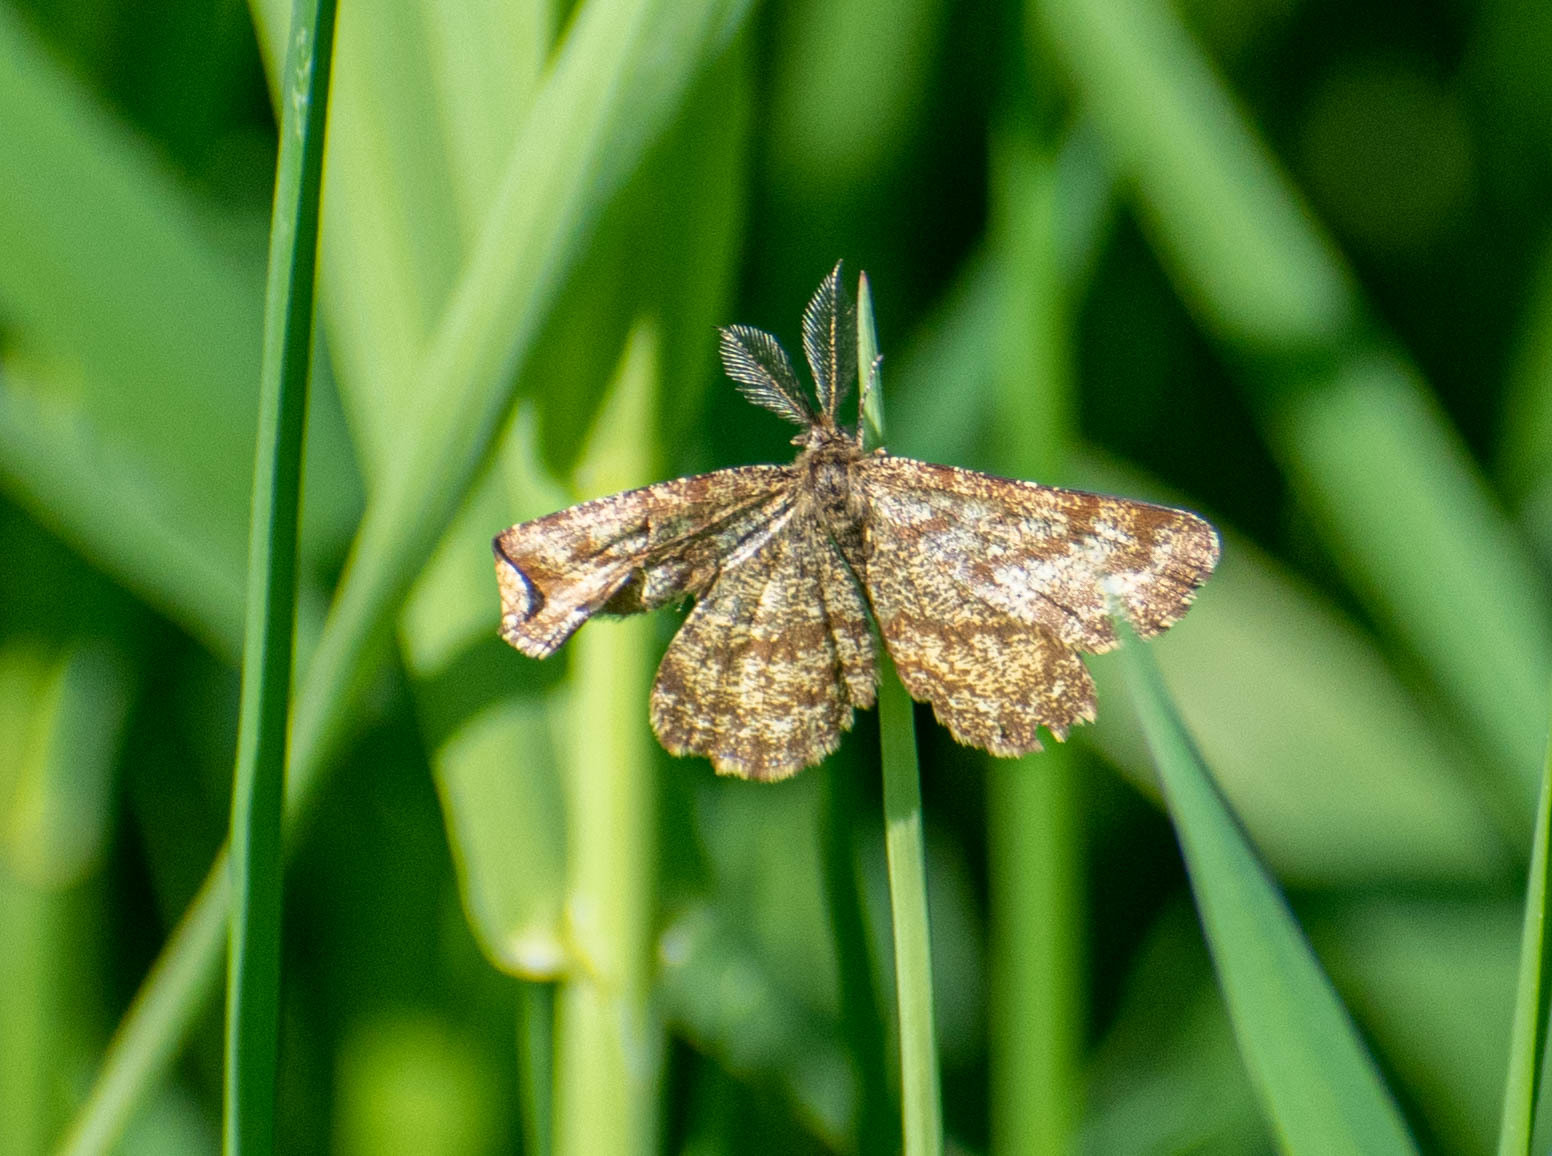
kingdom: Animalia
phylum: Arthropoda
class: Insecta
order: Lepidoptera
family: Geometridae
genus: Ematurga
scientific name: Ematurga atomaria
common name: Common heath
